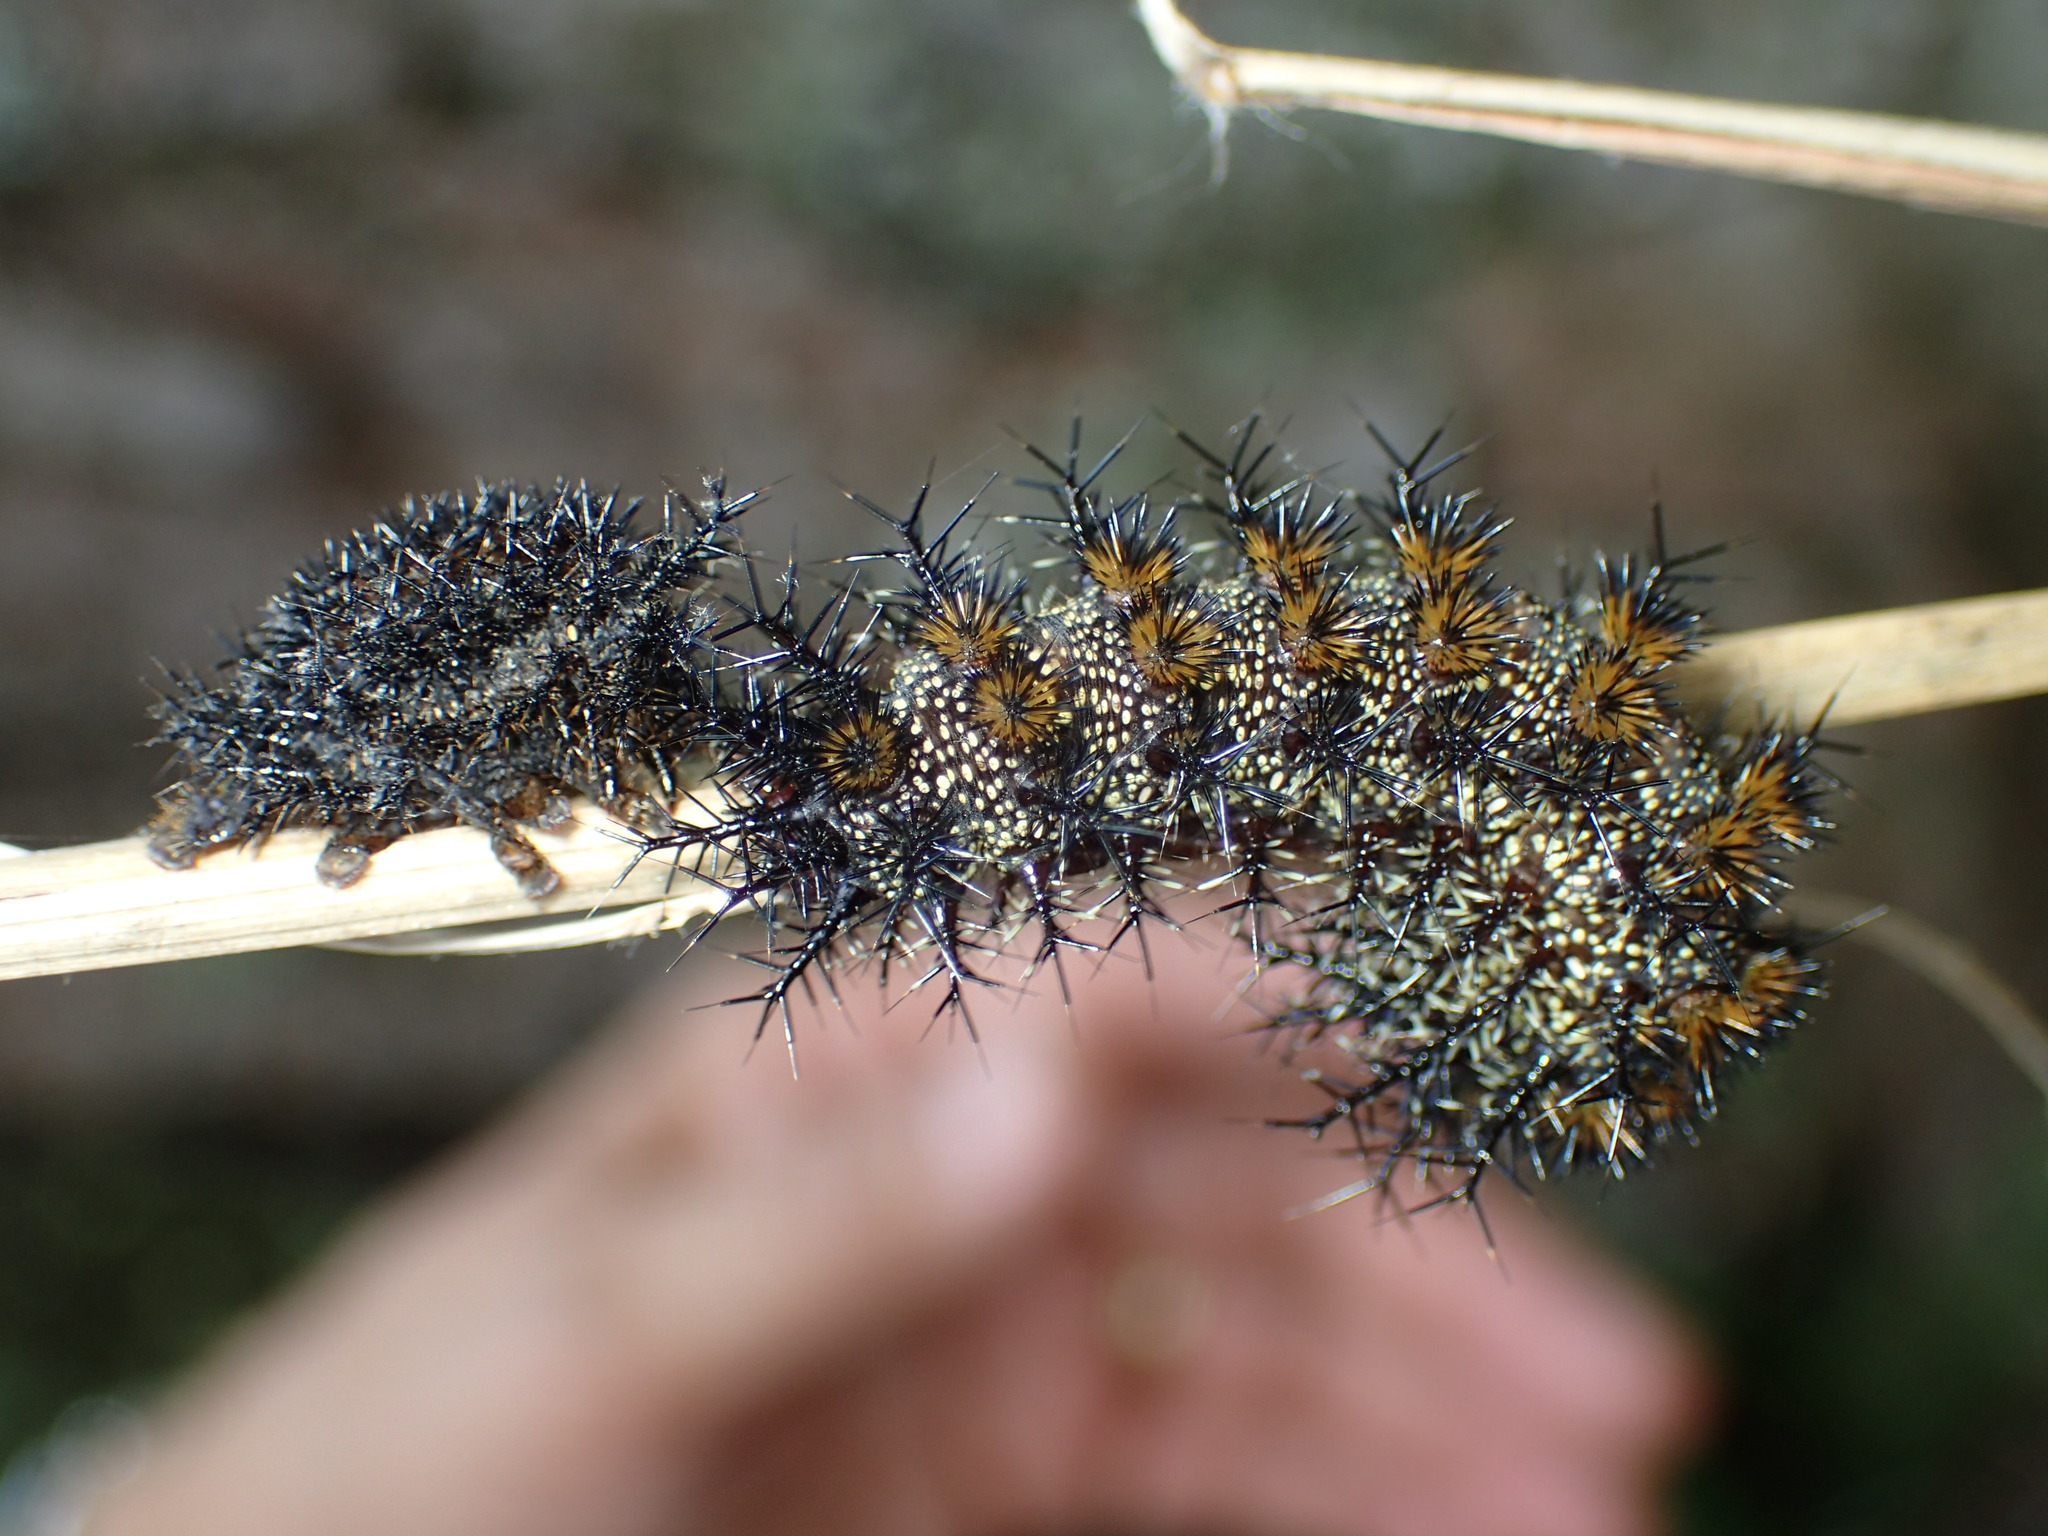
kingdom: Animalia
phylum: Arthropoda
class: Insecta
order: Lepidoptera
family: Saturniidae
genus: Hemileuca
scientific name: Hemileuca maia
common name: Eastern buckmoth
